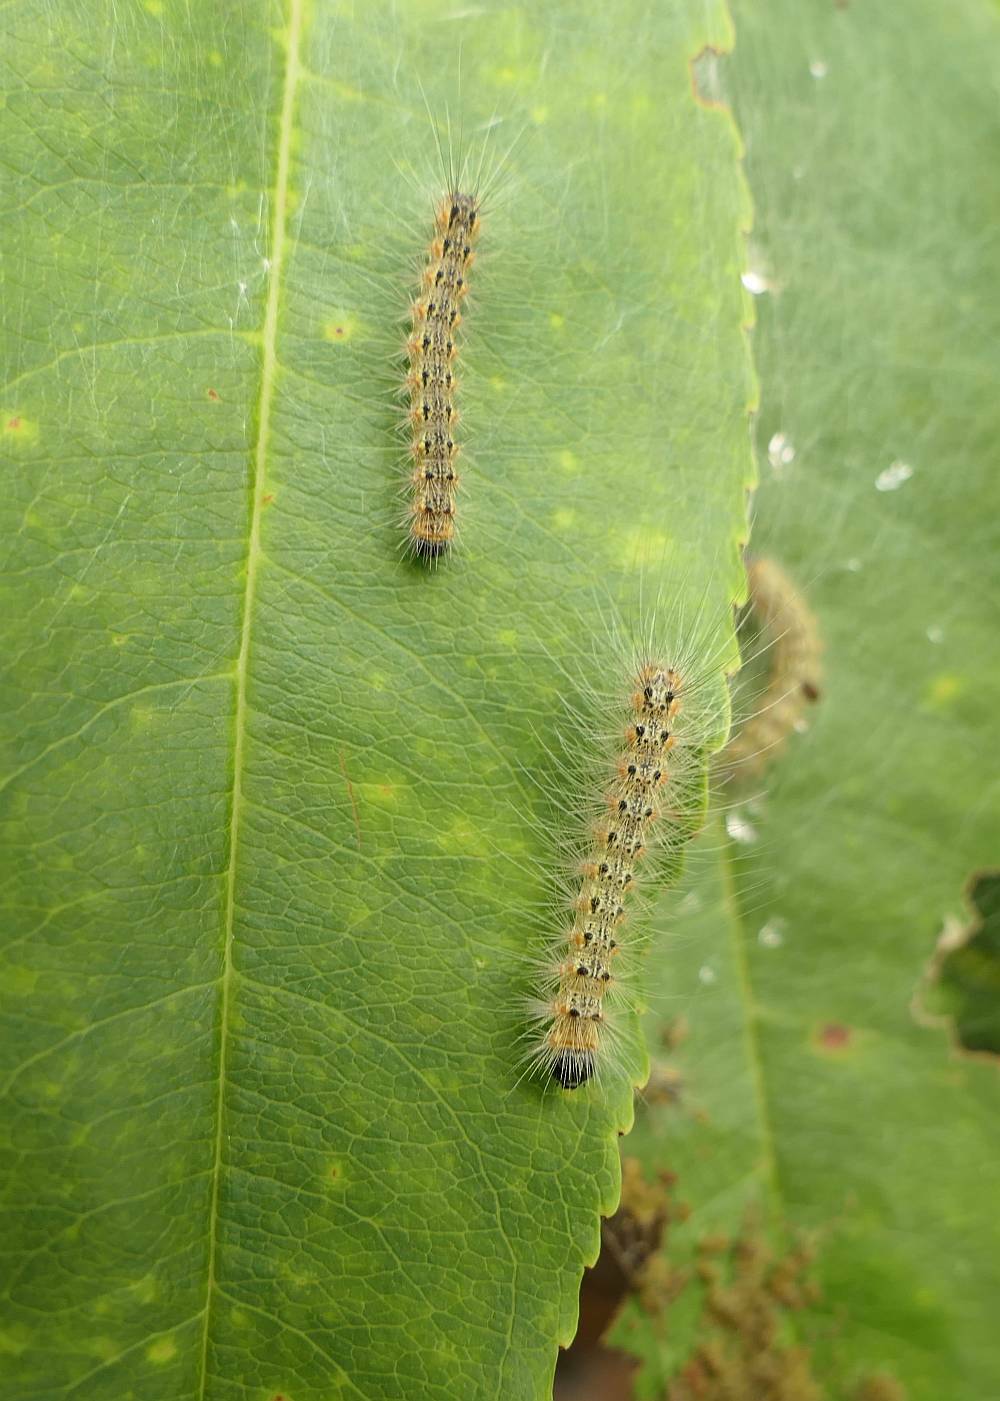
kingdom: Animalia
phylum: Arthropoda
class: Insecta
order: Lepidoptera
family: Erebidae
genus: Hyphantria
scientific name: Hyphantria cunea
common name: American white moth
